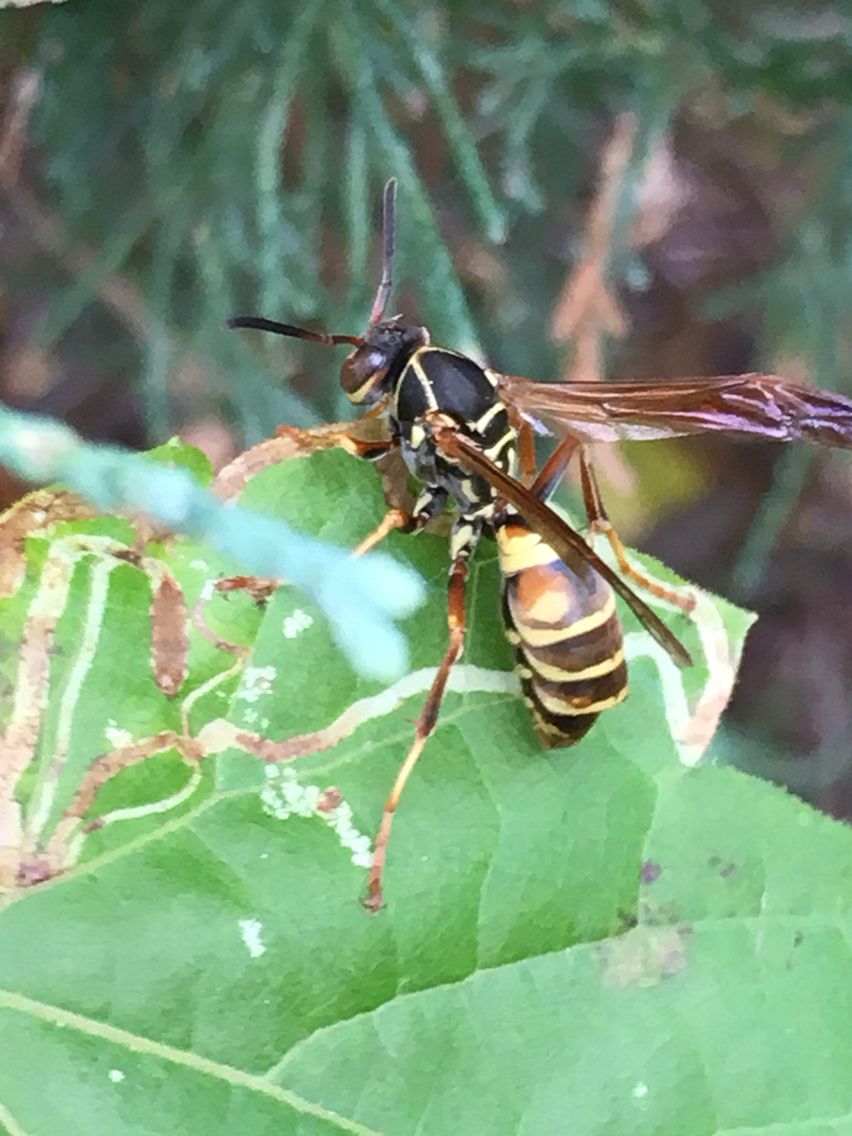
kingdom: Animalia
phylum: Arthropoda
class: Insecta
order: Hymenoptera
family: Eumenidae
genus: Polistes
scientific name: Polistes fuscatus
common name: Dark paper wasp
